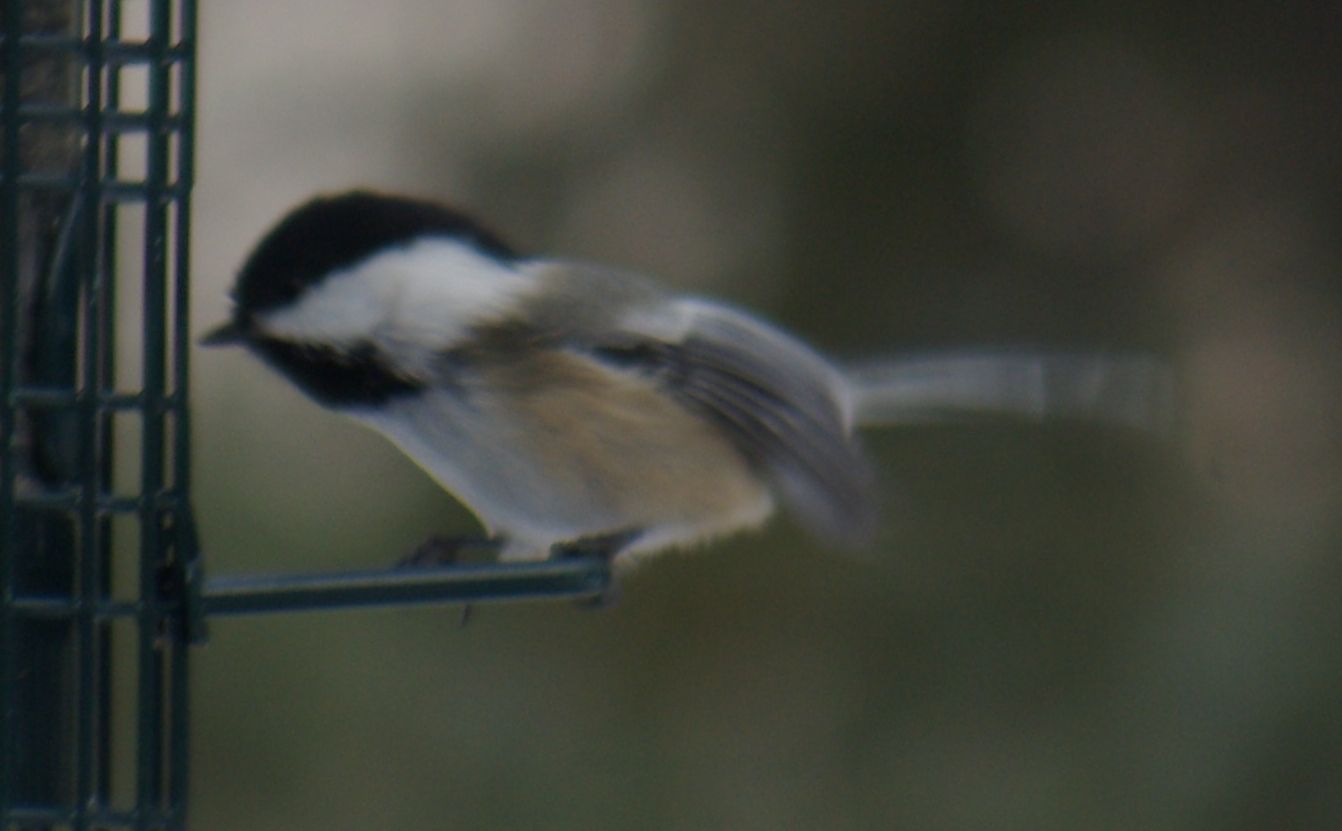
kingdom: Animalia
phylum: Chordata
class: Aves
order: Passeriformes
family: Paridae
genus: Poecile
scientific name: Poecile atricapillus
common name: Black-capped chickadee
